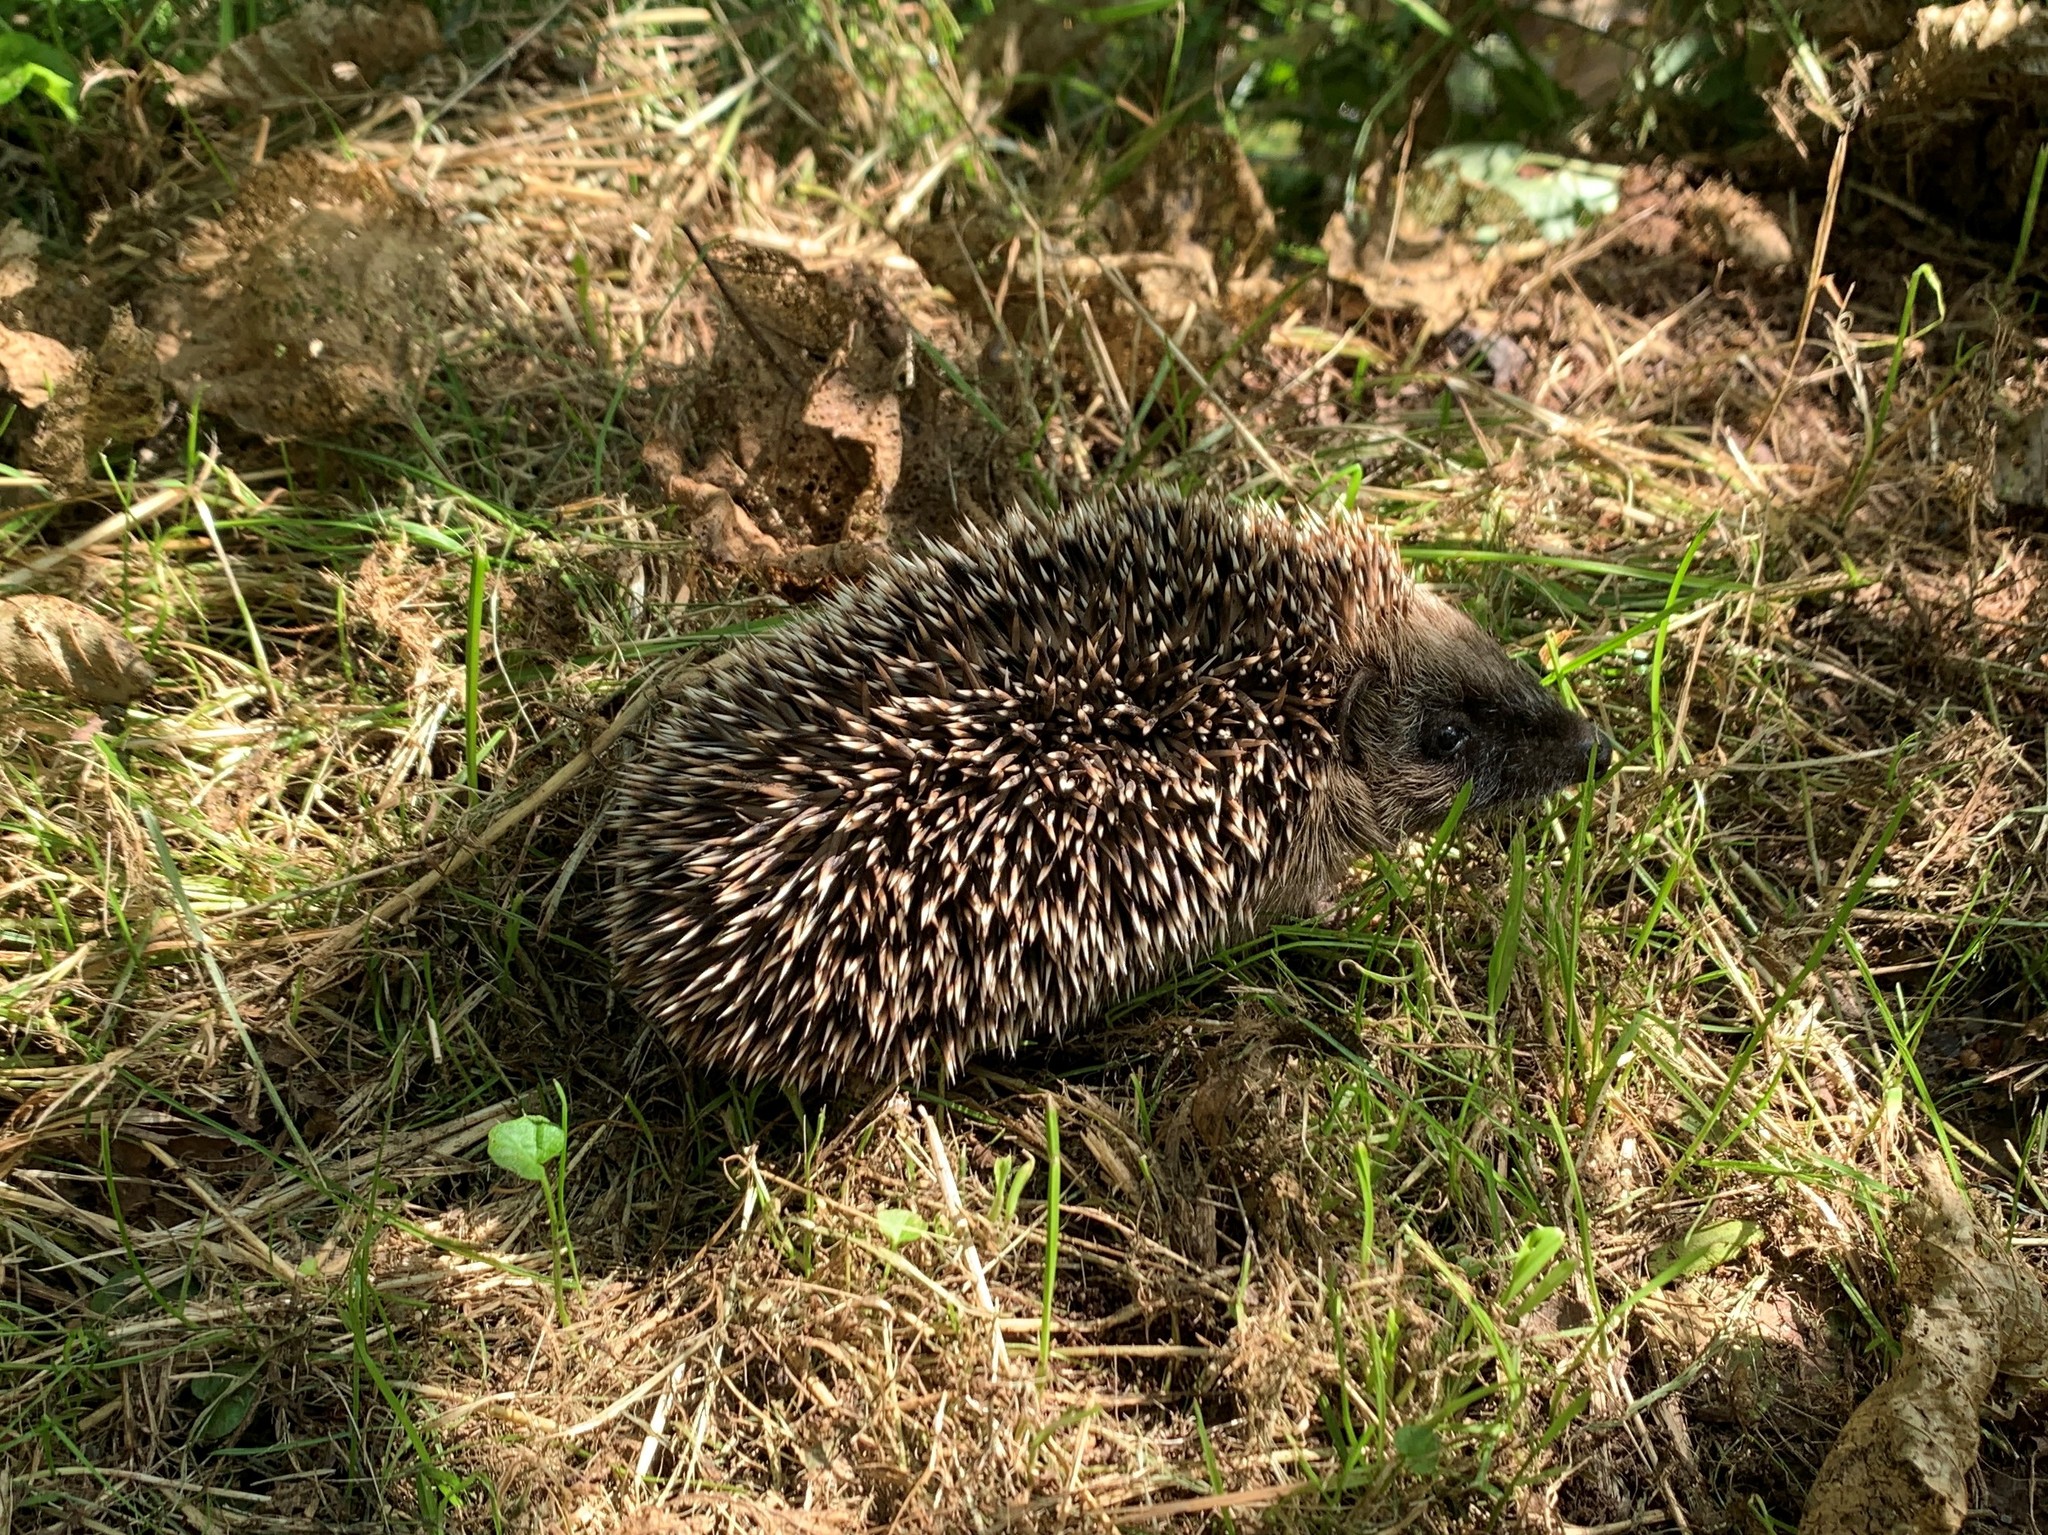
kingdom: Animalia
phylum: Chordata
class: Mammalia
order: Erinaceomorpha
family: Erinaceidae
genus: Erinaceus
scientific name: Erinaceus europaeus
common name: West european hedgehog
